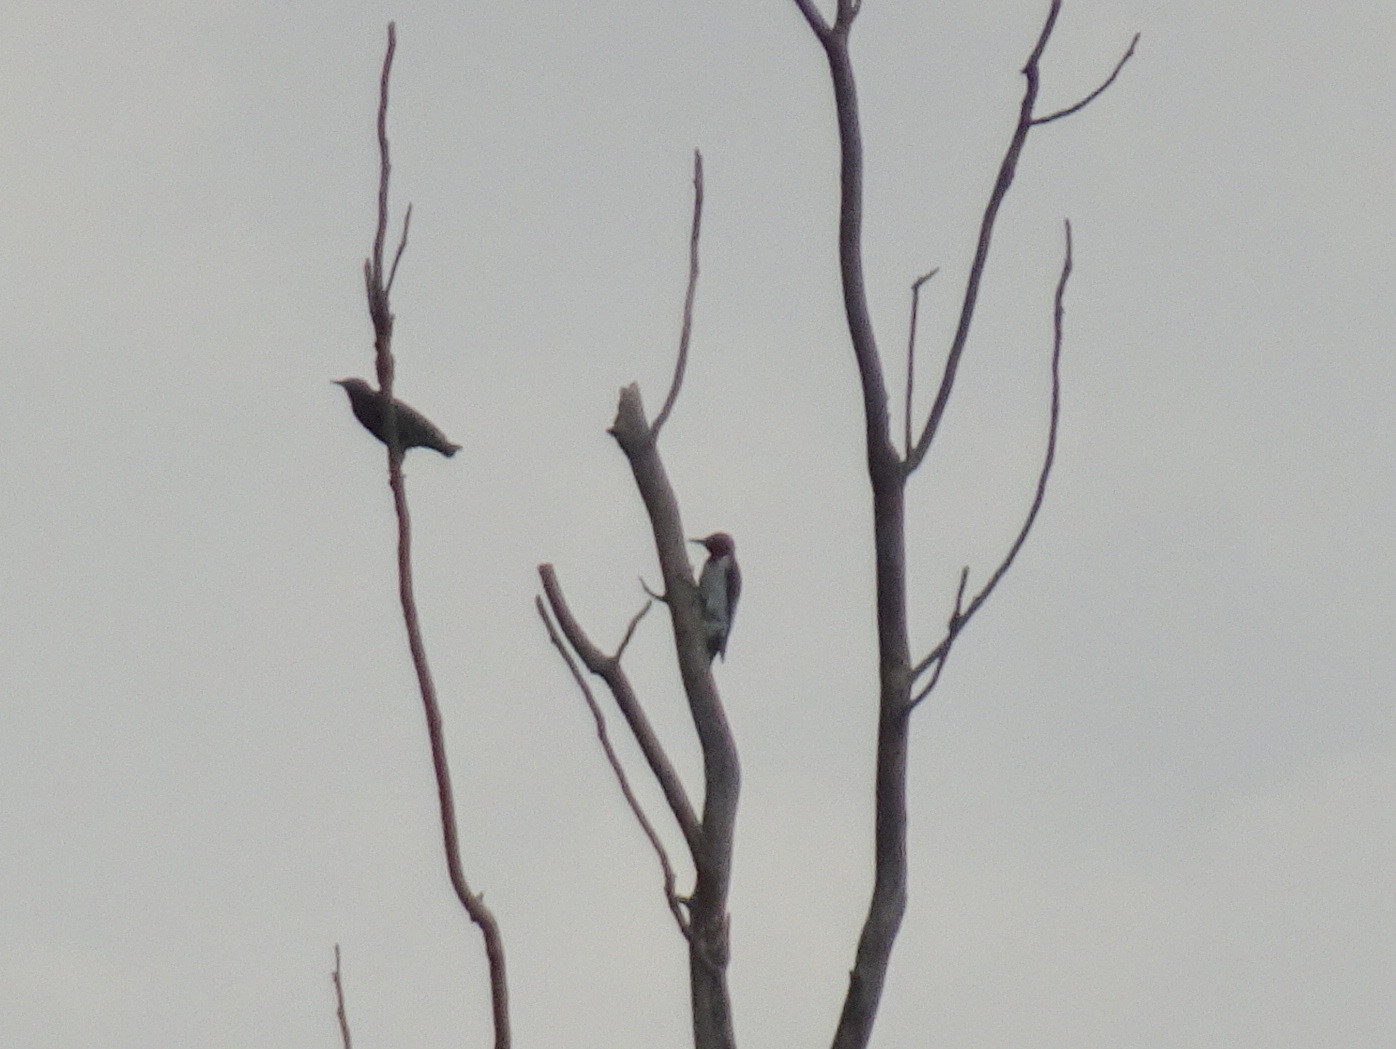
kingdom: Animalia
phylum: Chordata
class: Aves
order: Piciformes
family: Picidae
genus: Melanerpes
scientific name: Melanerpes erythrocephalus
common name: Red-headed woodpecker
